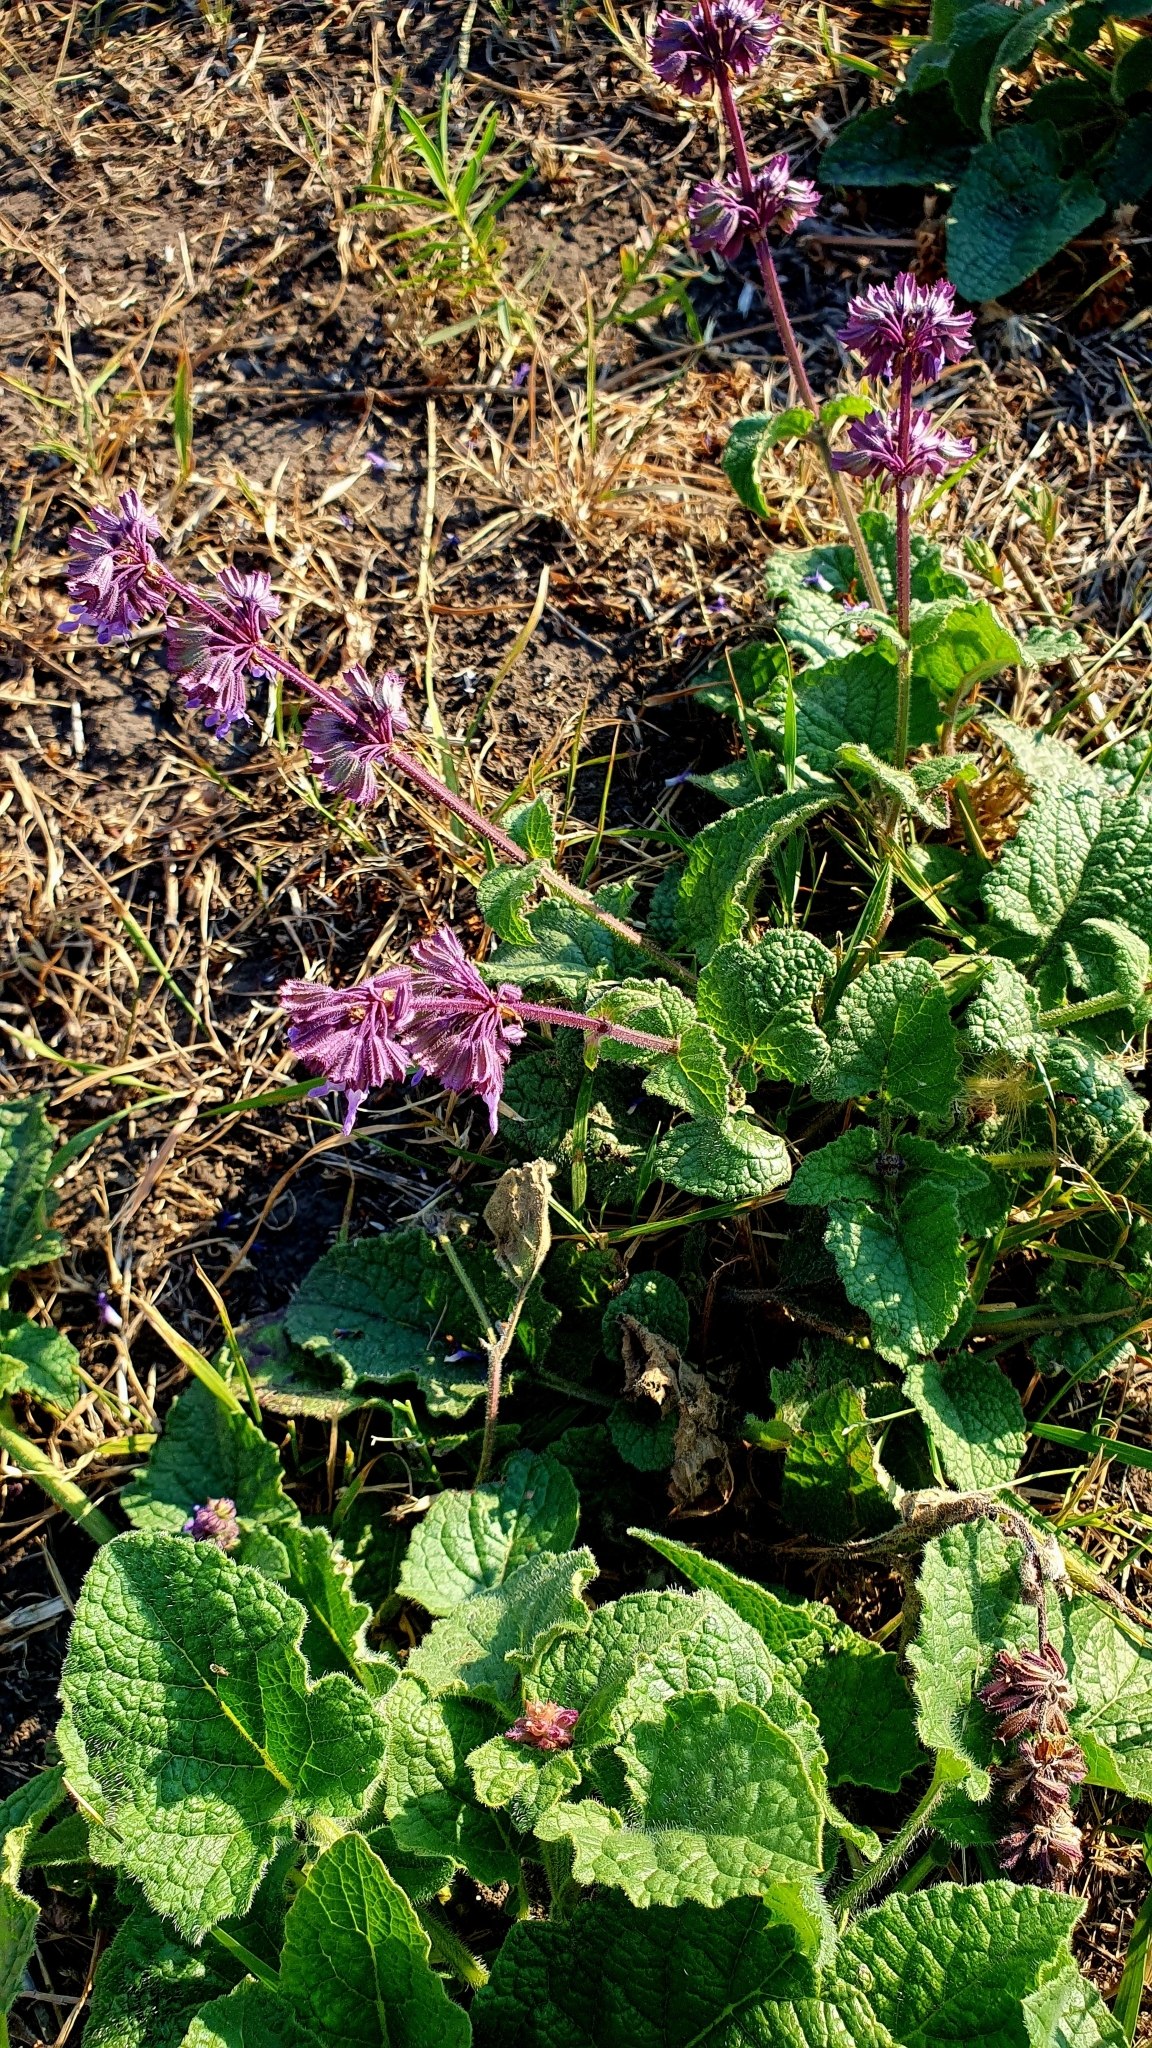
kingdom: Plantae
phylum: Tracheophyta
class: Magnoliopsida
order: Lamiales
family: Lamiaceae
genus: Salvia
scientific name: Salvia verticillata
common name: Whorled clary
